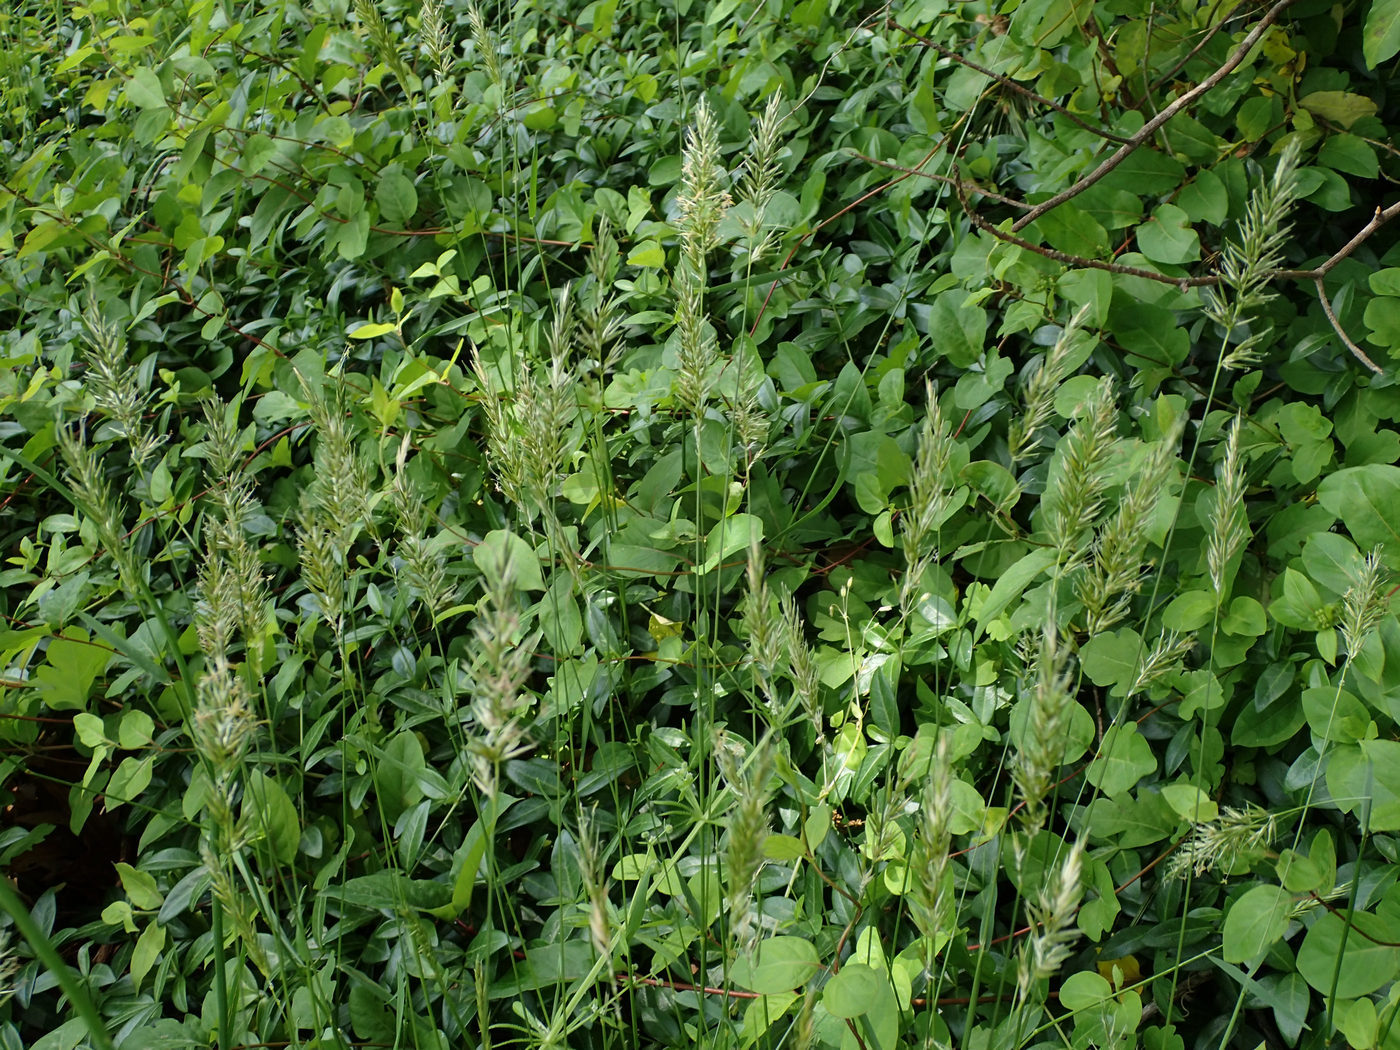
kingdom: Plantae
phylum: Tracheophyta
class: Liliopsida
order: Poales
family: Poaceae
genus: Anthoxanthum
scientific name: Anthoxanthum odoratum
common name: Sweet vernalgrass
